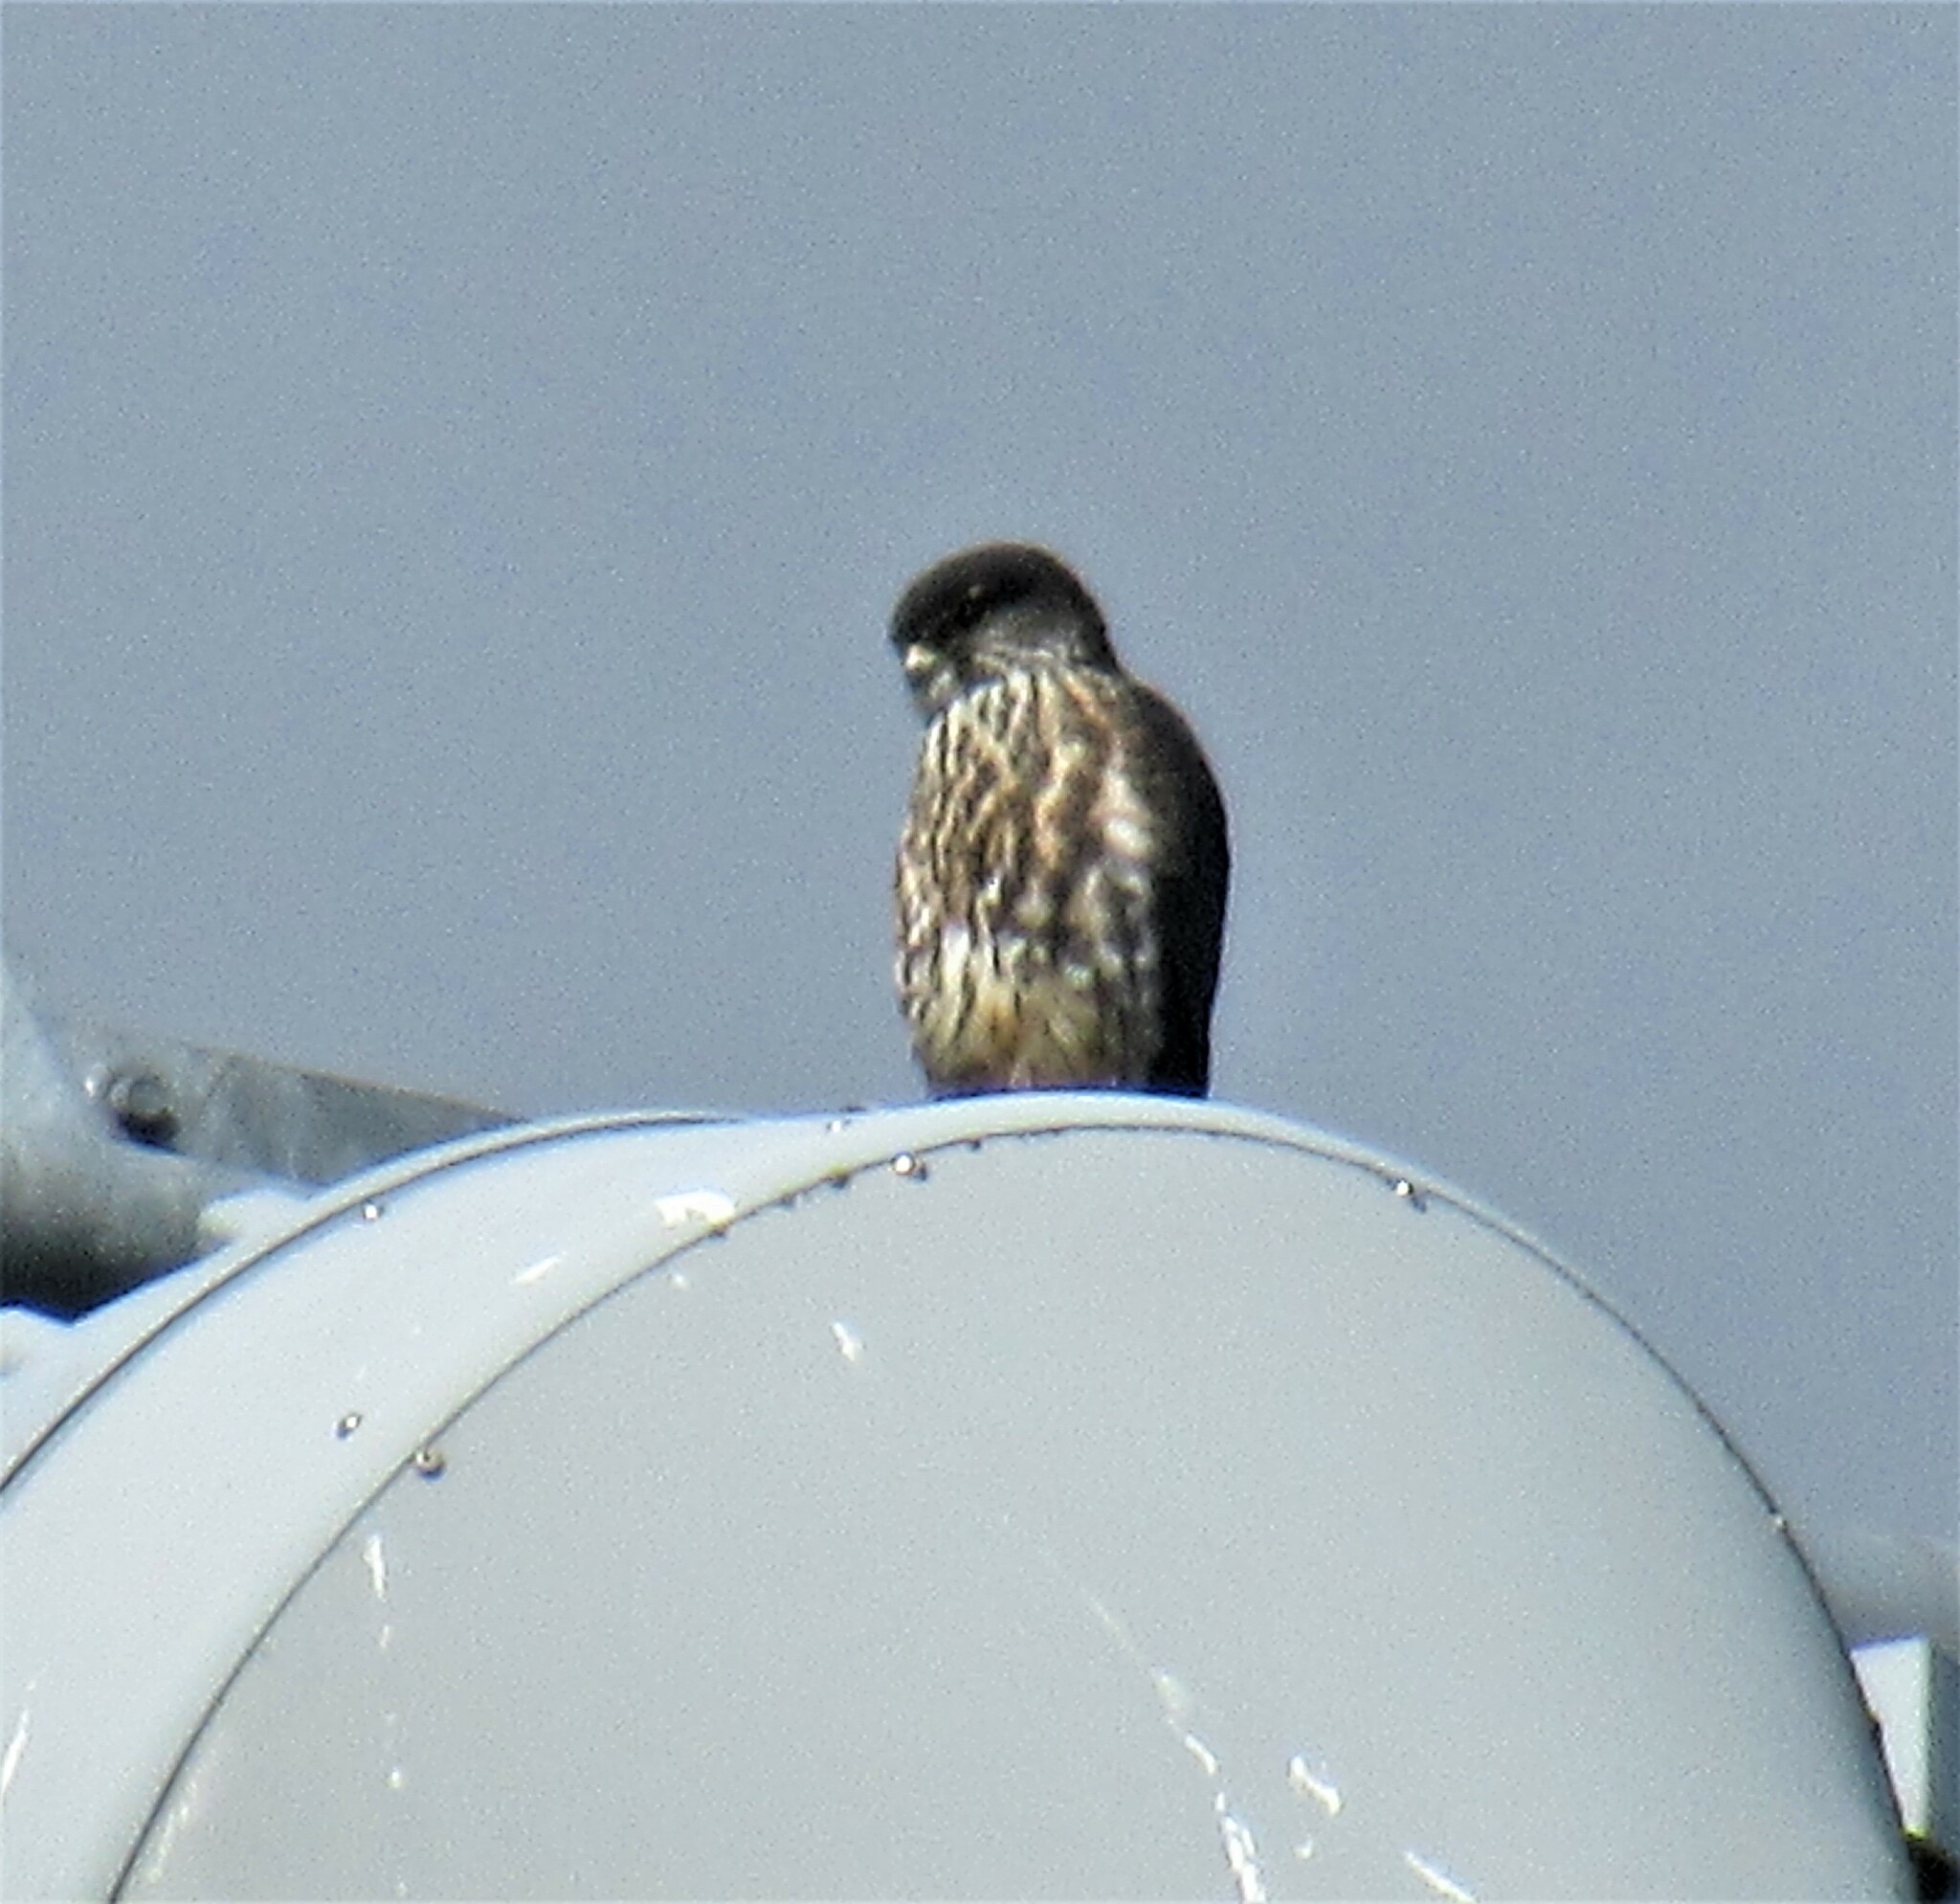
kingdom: Animalia
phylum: Chordata
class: Aves
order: Falconiformes
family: Falconidae
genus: Falco
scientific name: Falco columbarius
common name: Merlin
